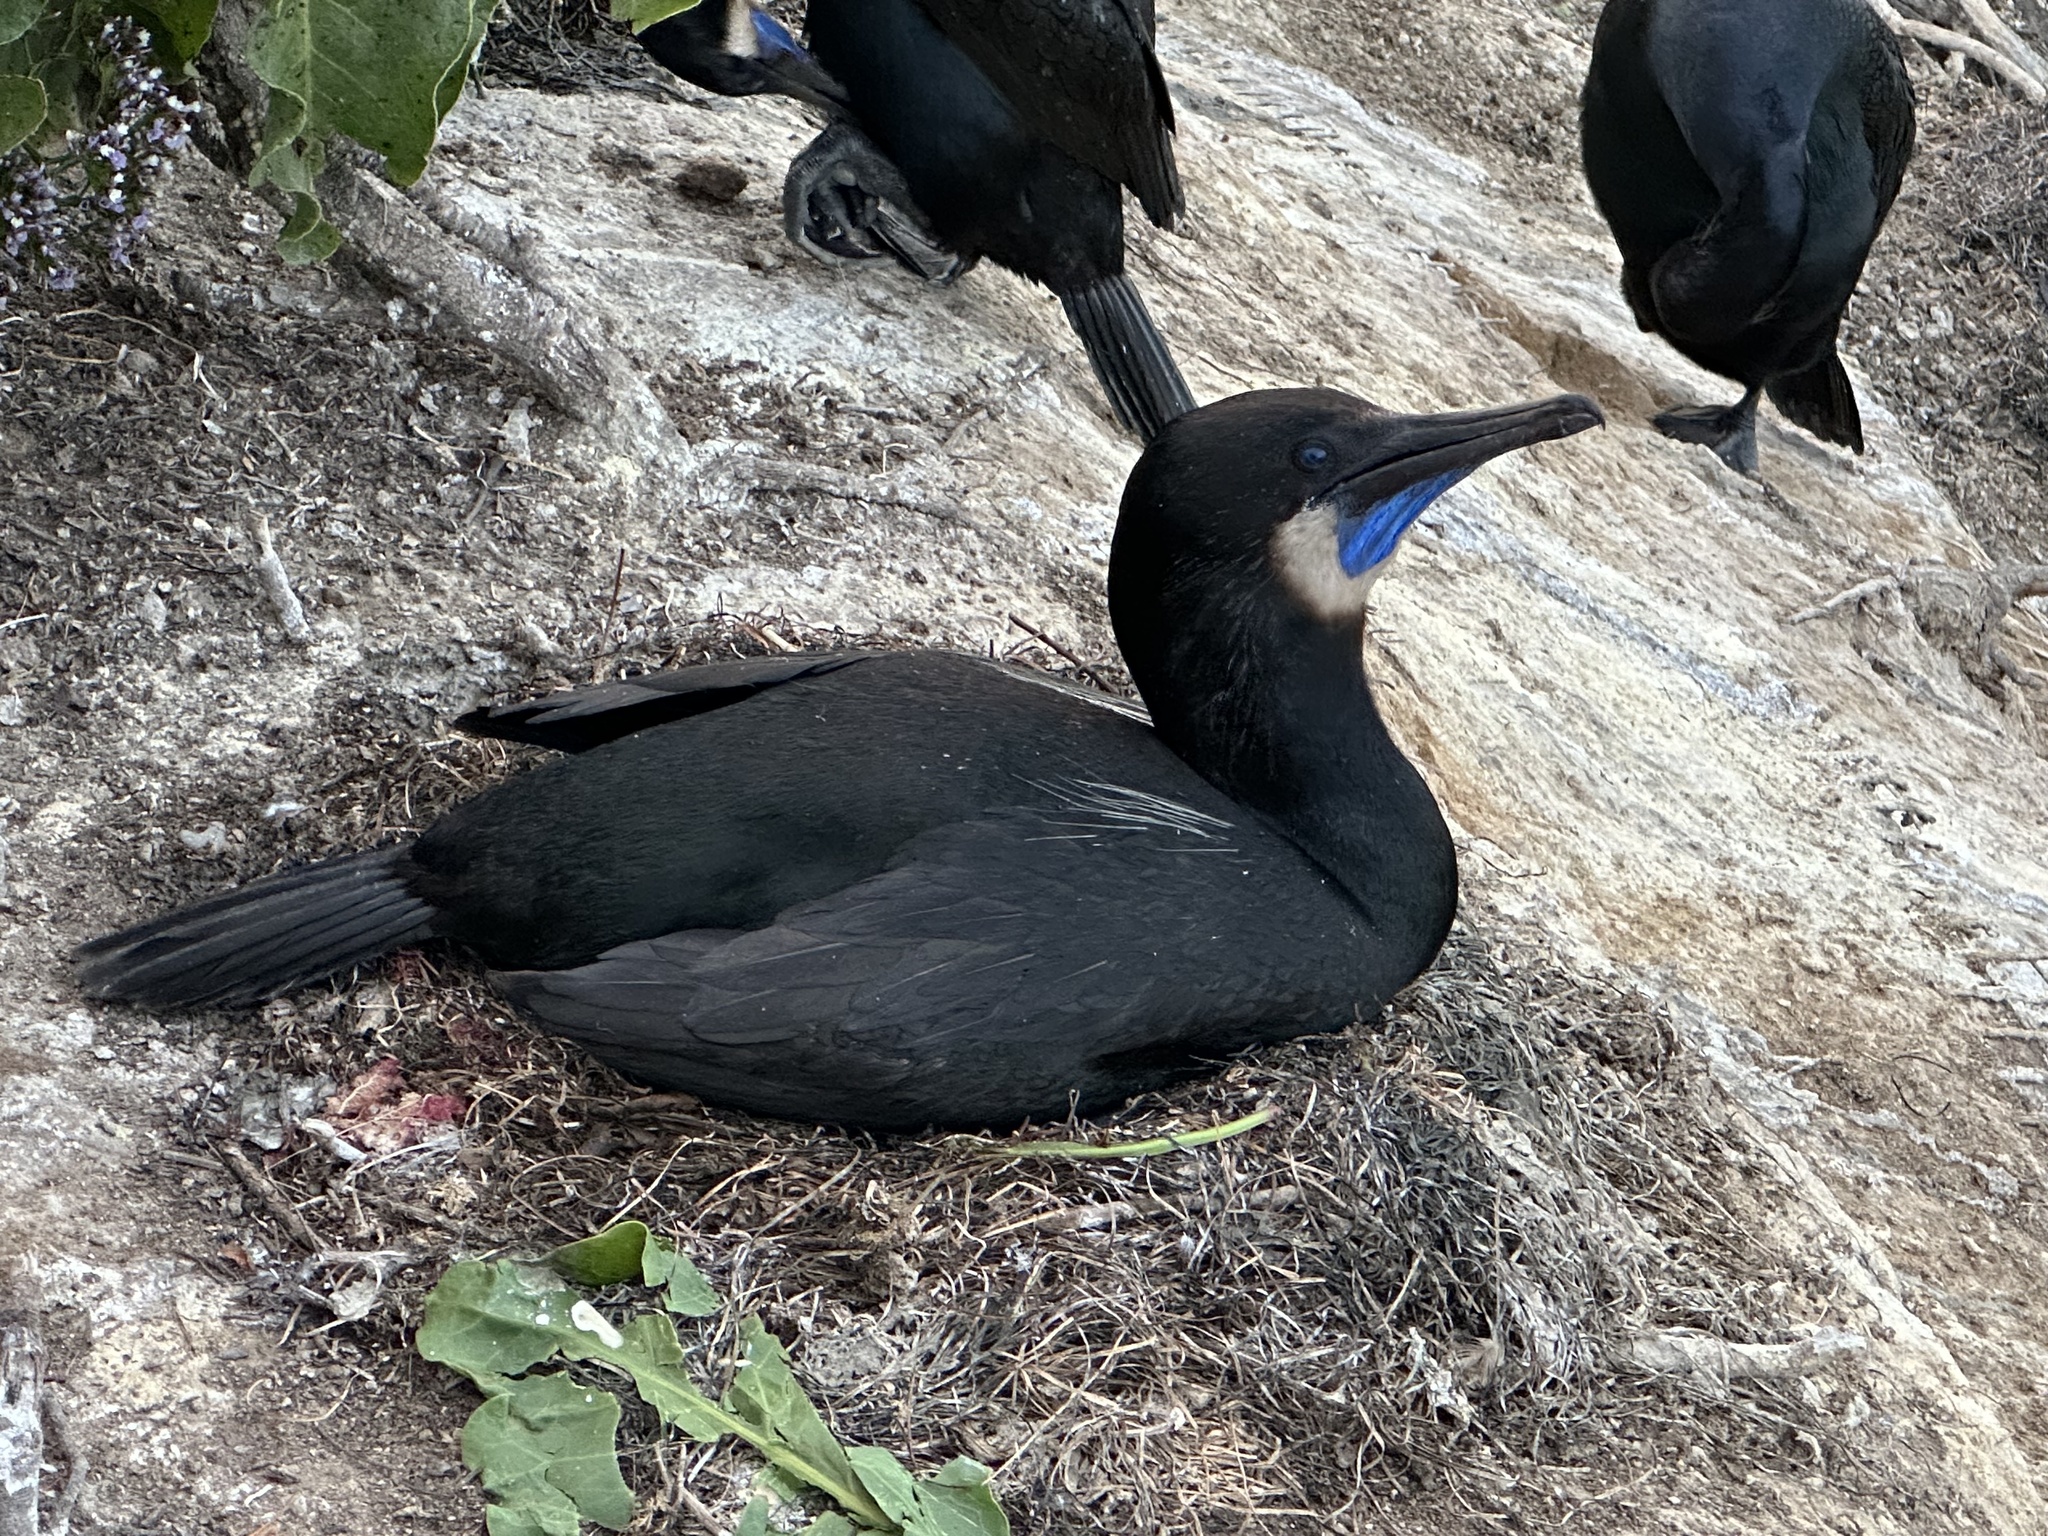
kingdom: Animalia
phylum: Chordata
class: Aves
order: Suliformes
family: Phalacrocoracidae
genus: Urile
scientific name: Urile penicillatus
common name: Brandt's cormorant
